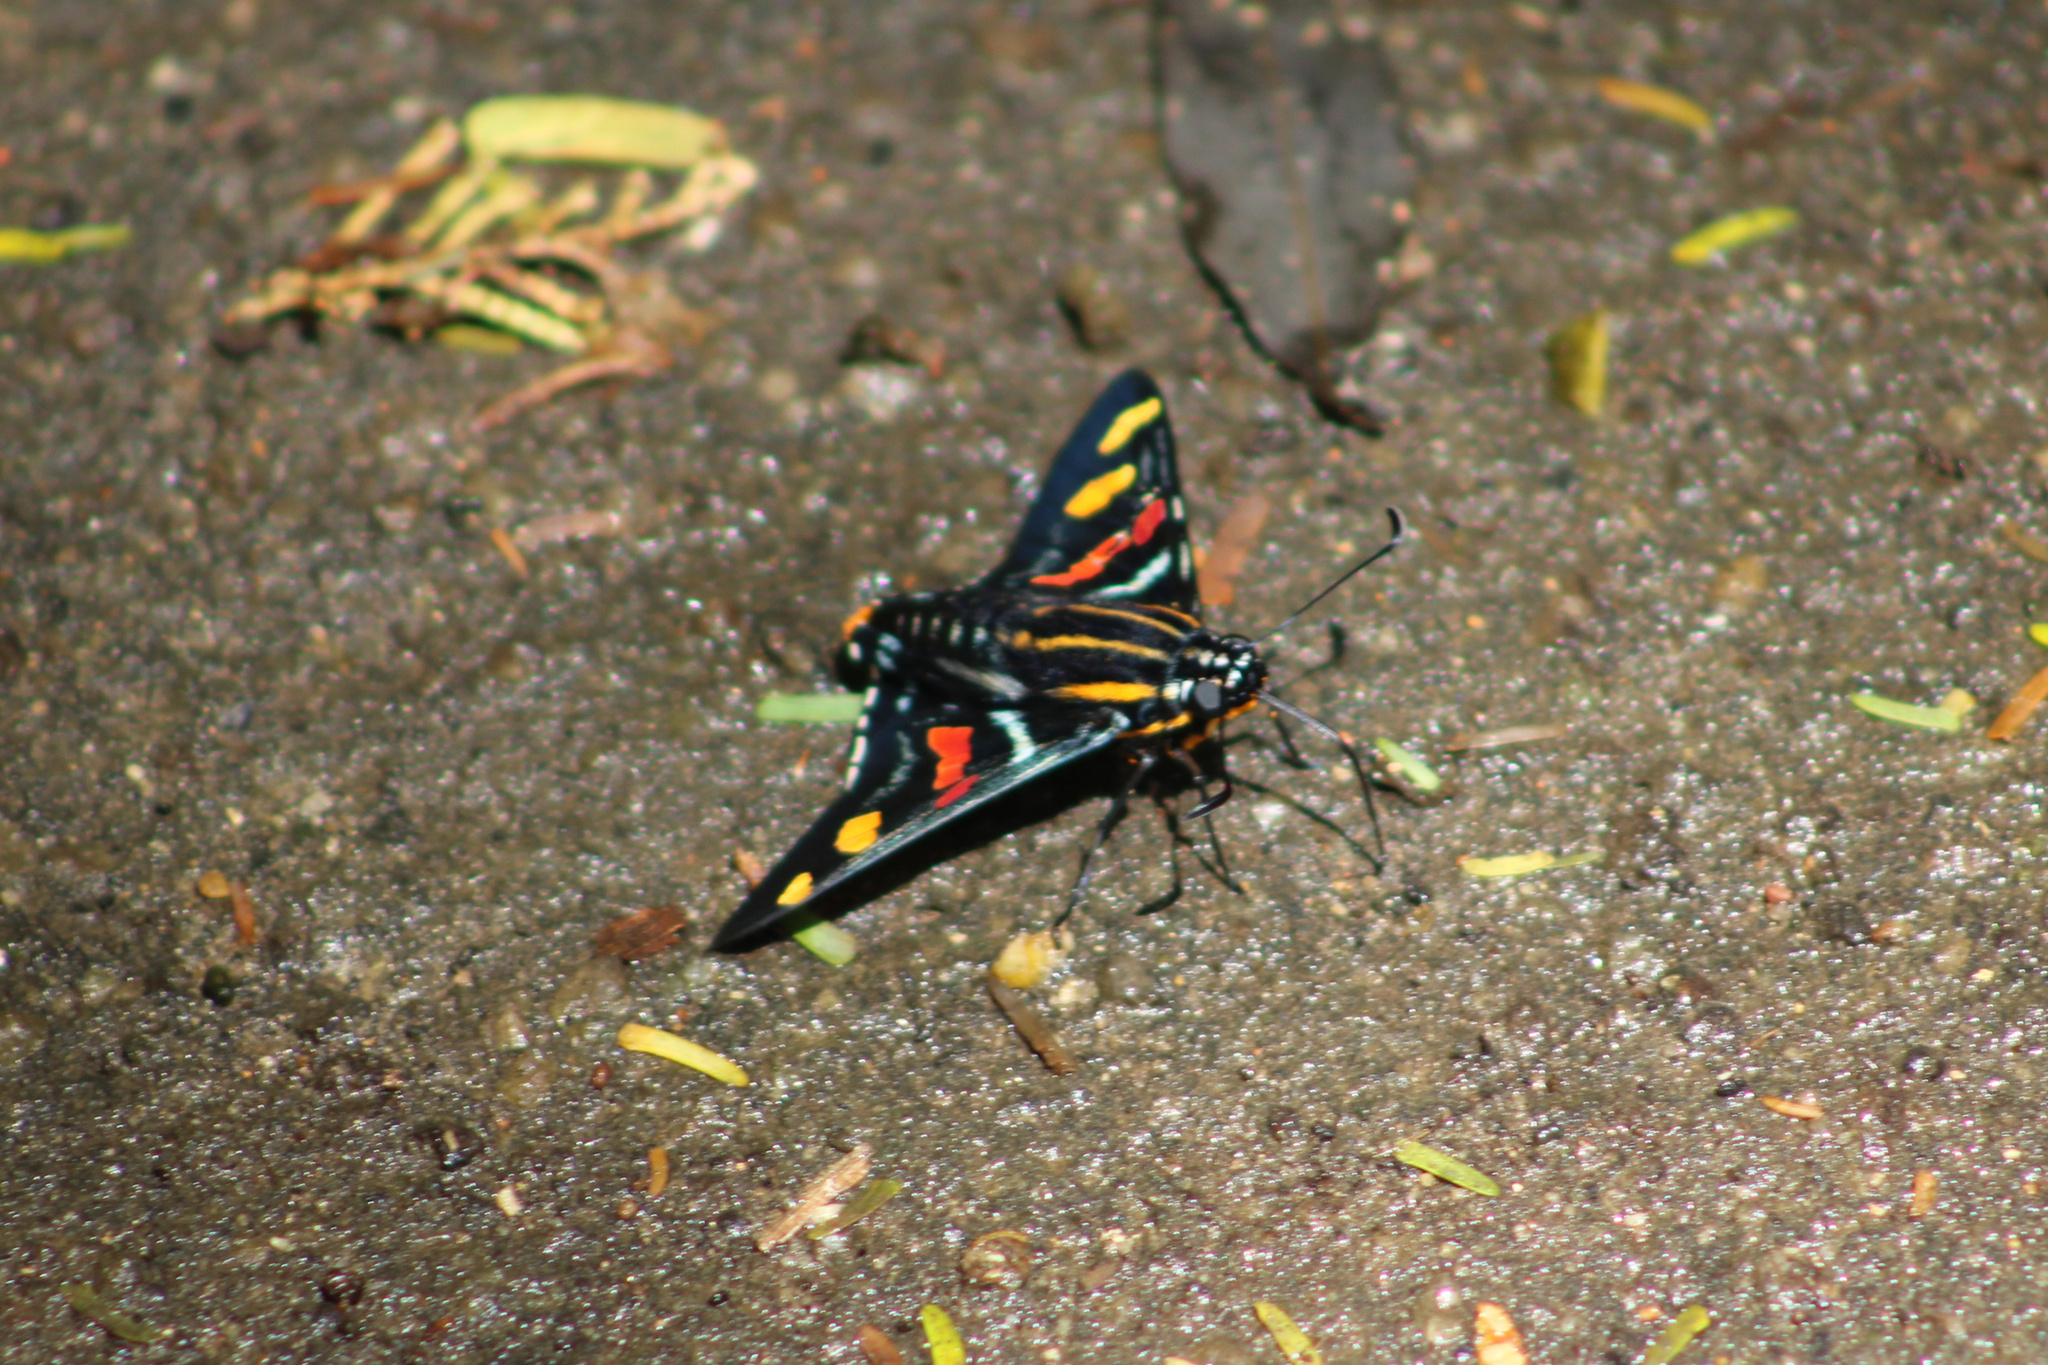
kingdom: Animalia
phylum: Arthropoda
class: Insecta
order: Lepidoptera
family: Hesperiidae
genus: Mimoniades
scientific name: Mimoniades versicolor
